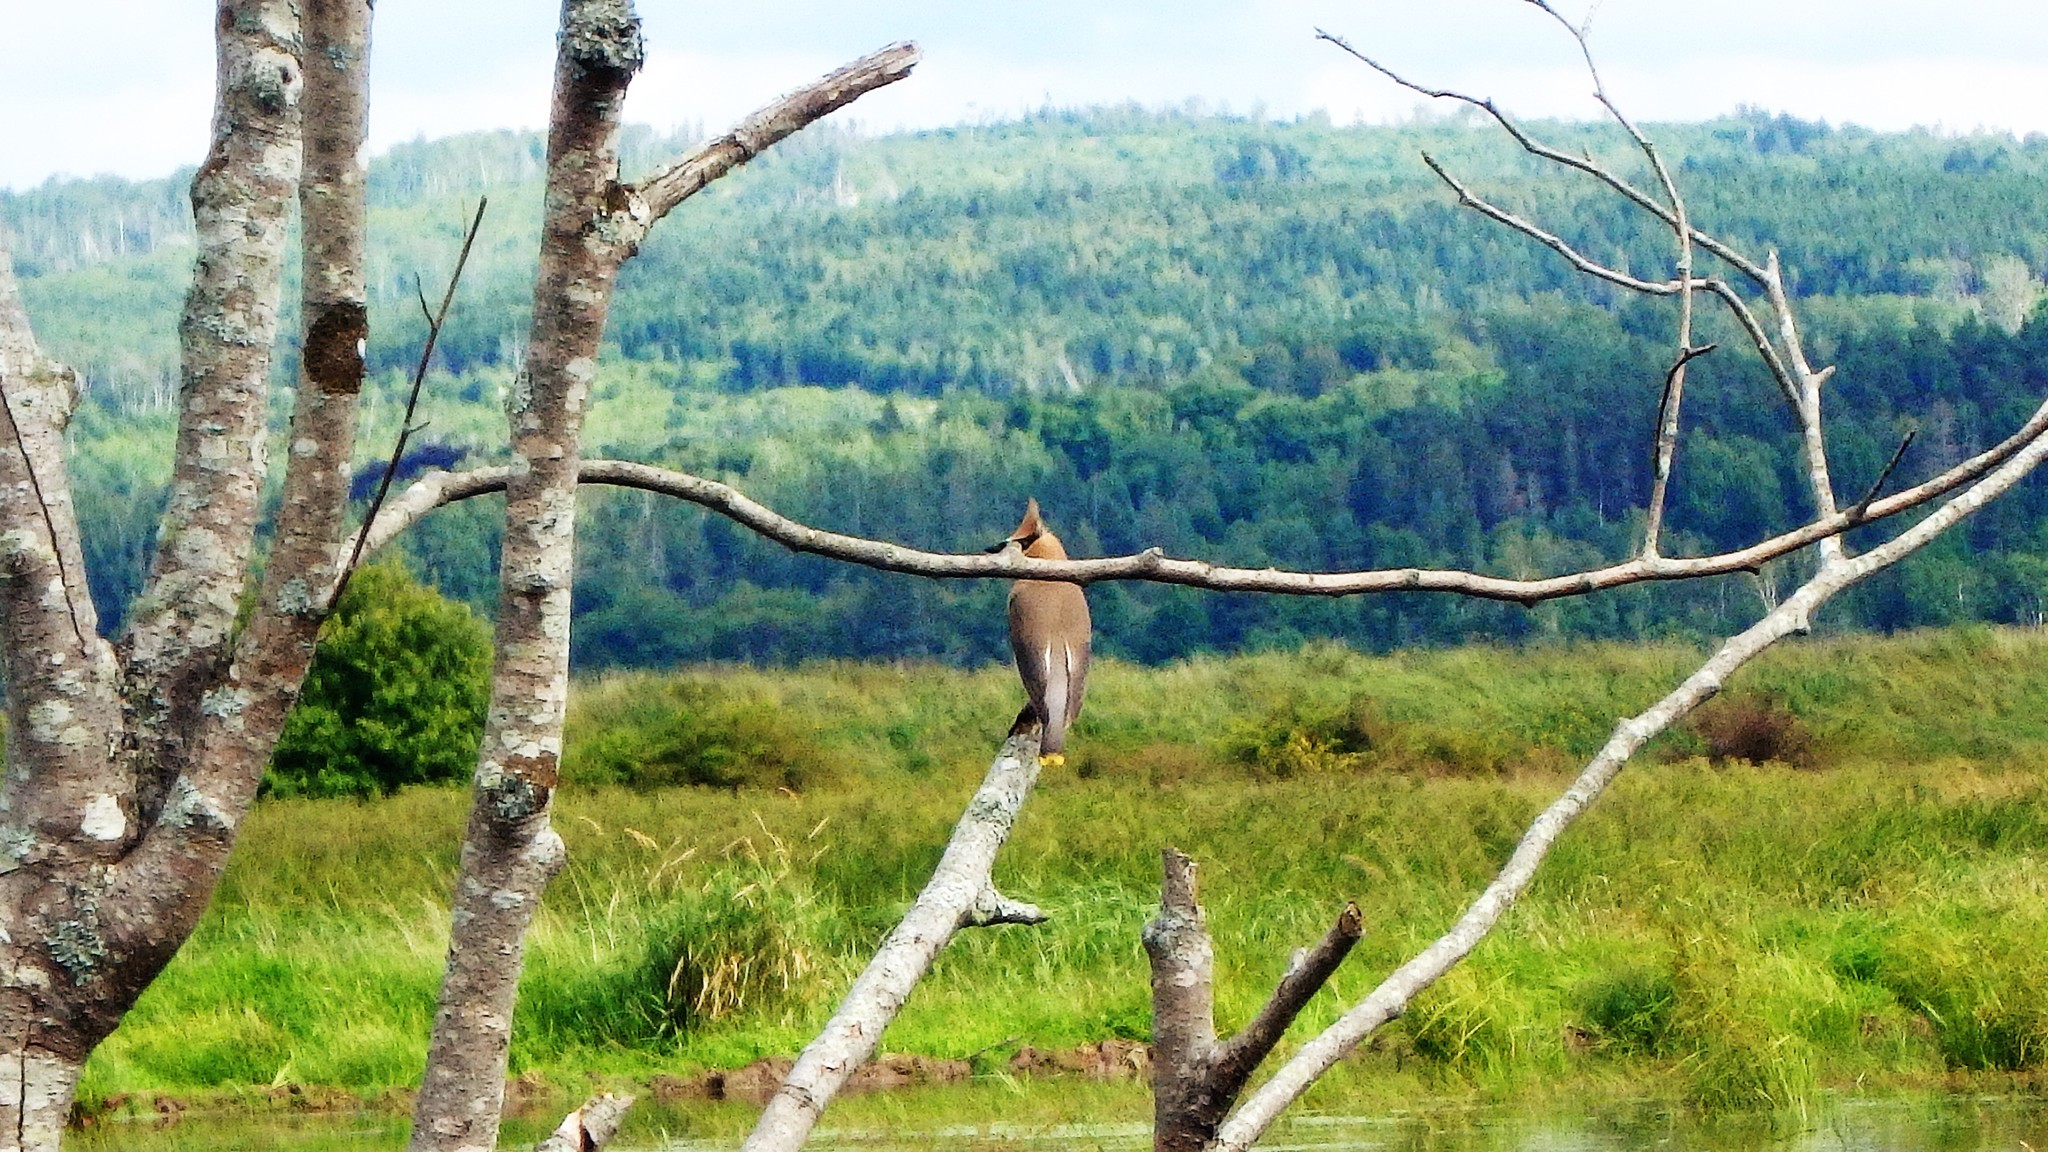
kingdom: Animalia
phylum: Chordata
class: Aves
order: Passeriformes
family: Bombycillidae
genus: Bombycilla
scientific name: Bombycilla cedrorum
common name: Cedar waxwing
